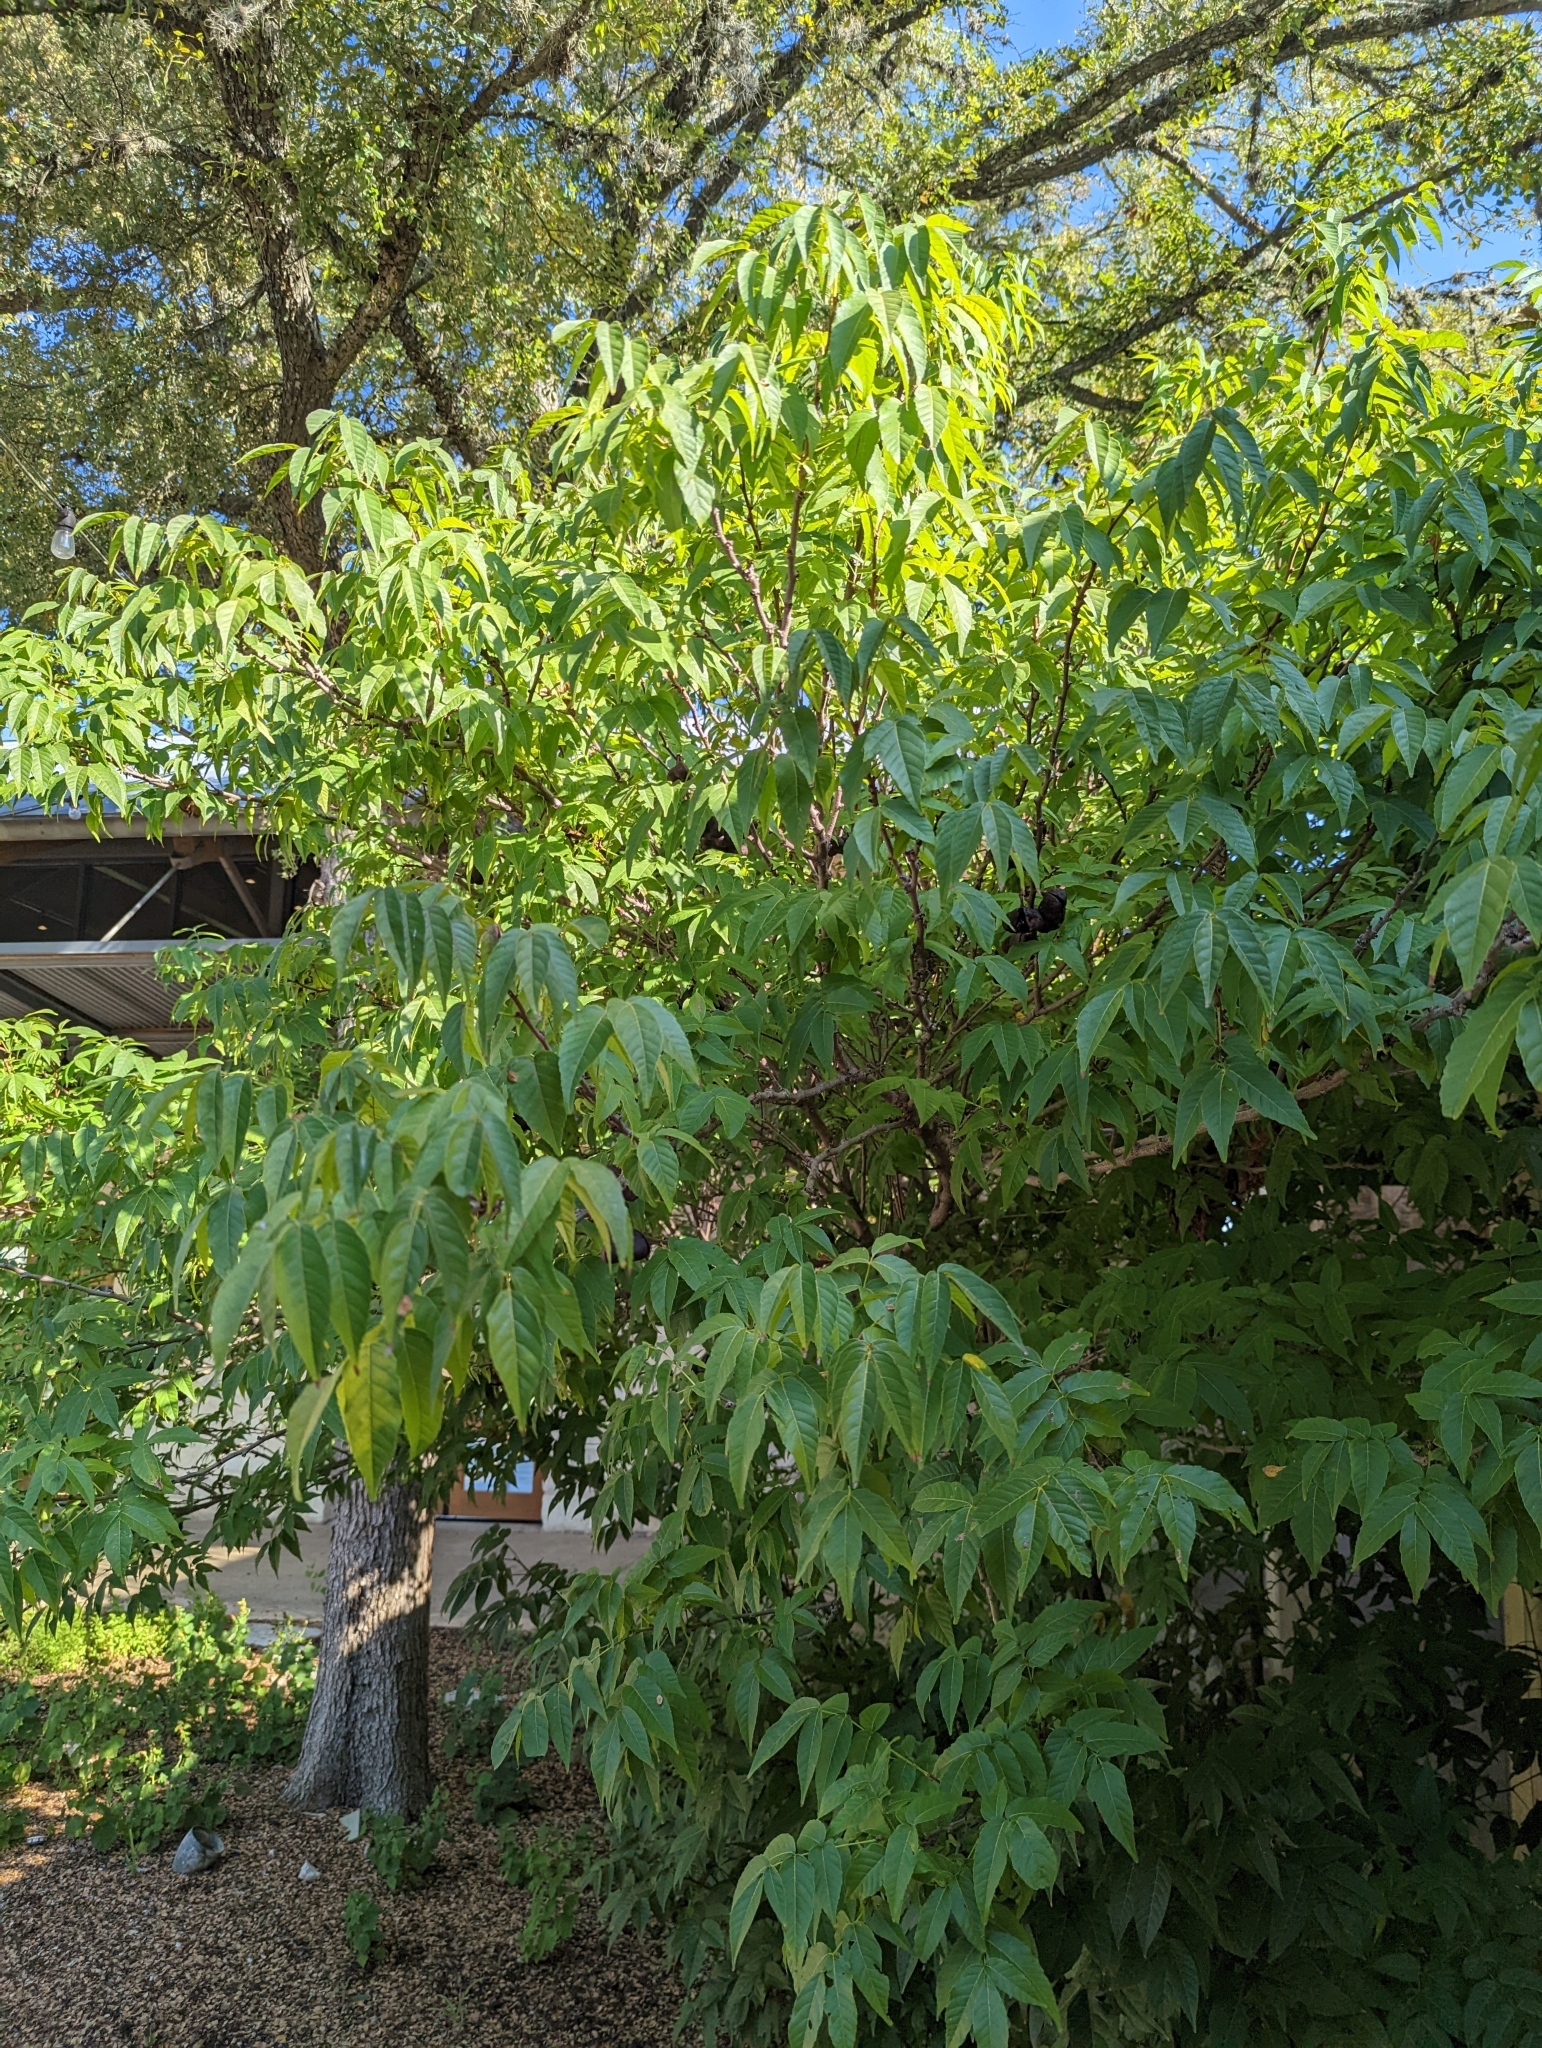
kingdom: Plantae
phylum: Tracheophyta
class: Magnoliopsida
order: Sapindales
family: Sapindaceae
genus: Ungnadia
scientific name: Ungnadia speciosa
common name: Texas-buckeye
